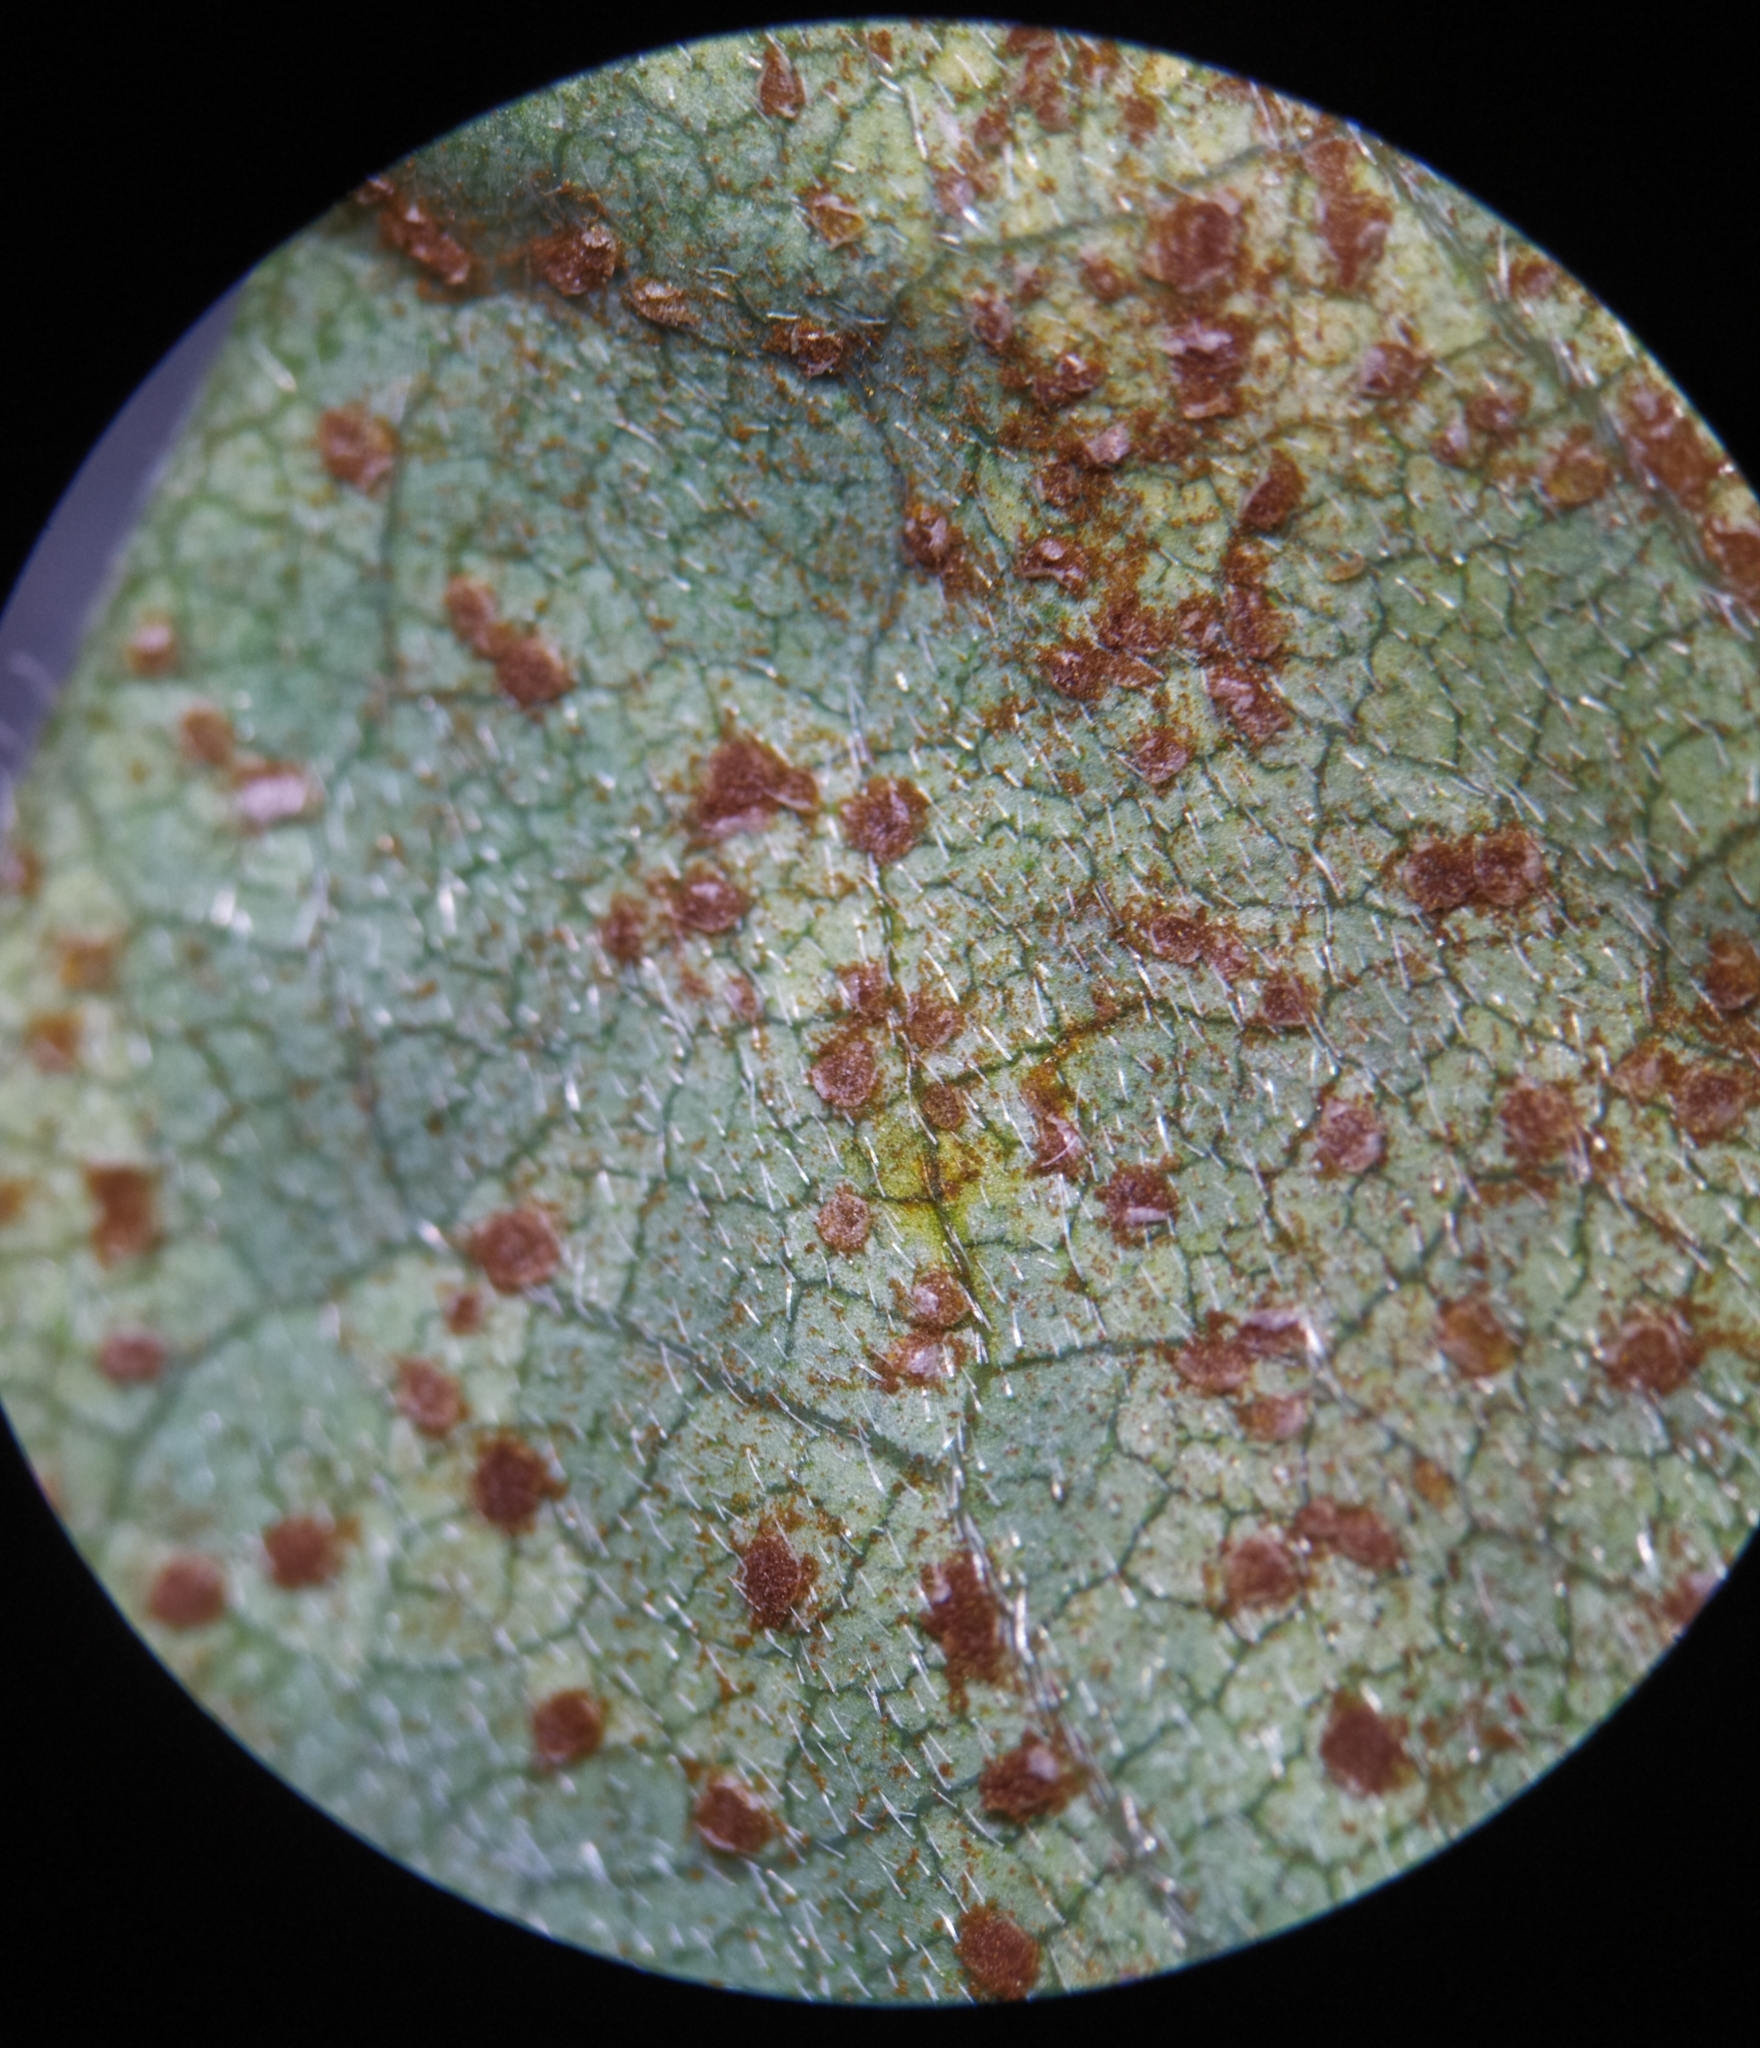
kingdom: Fungi
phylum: Basidiomycota
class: Pucciniomycetes
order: Pucciniales
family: Pucciniaceae
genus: Uromyces
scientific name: Uromyces pisi-sativi
